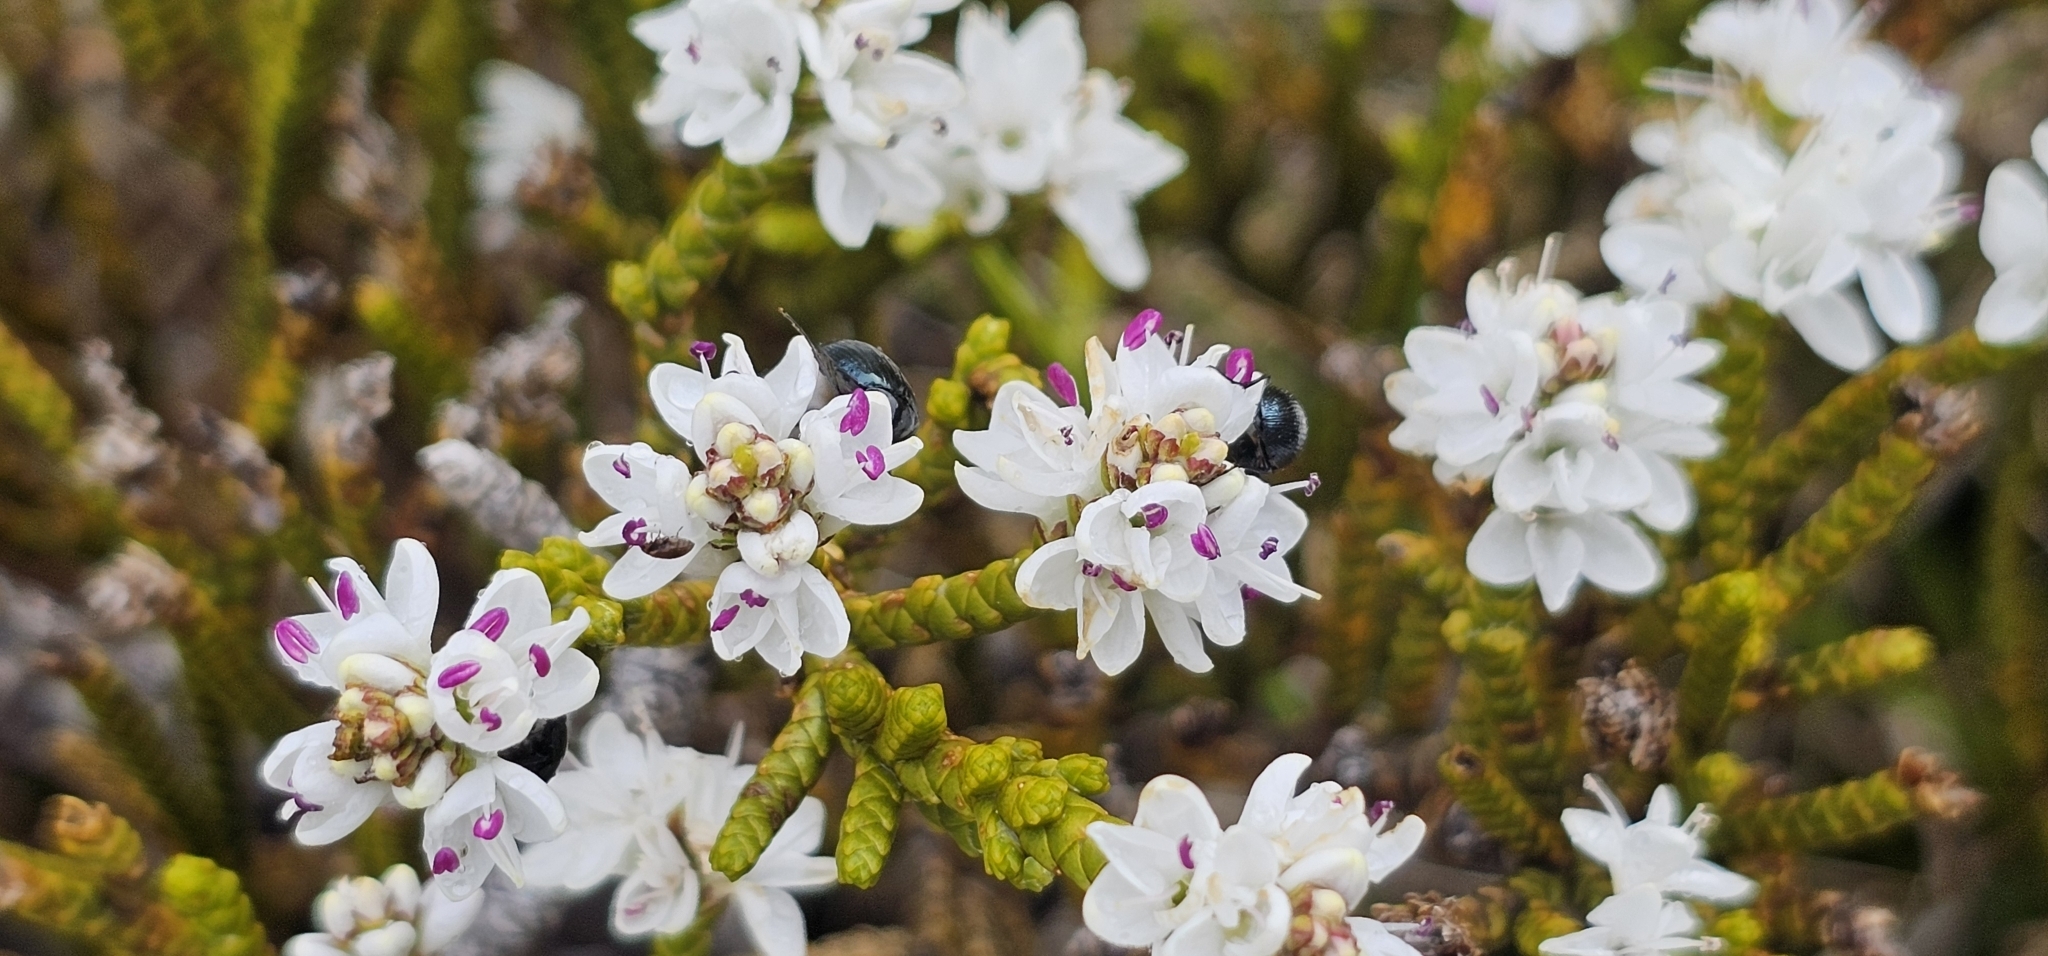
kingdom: Plantae
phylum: Tracheophyta
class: Magnoliopsida
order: Lamiales
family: Plantaginaceae
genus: Veronica
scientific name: Veronica lycopodioides
